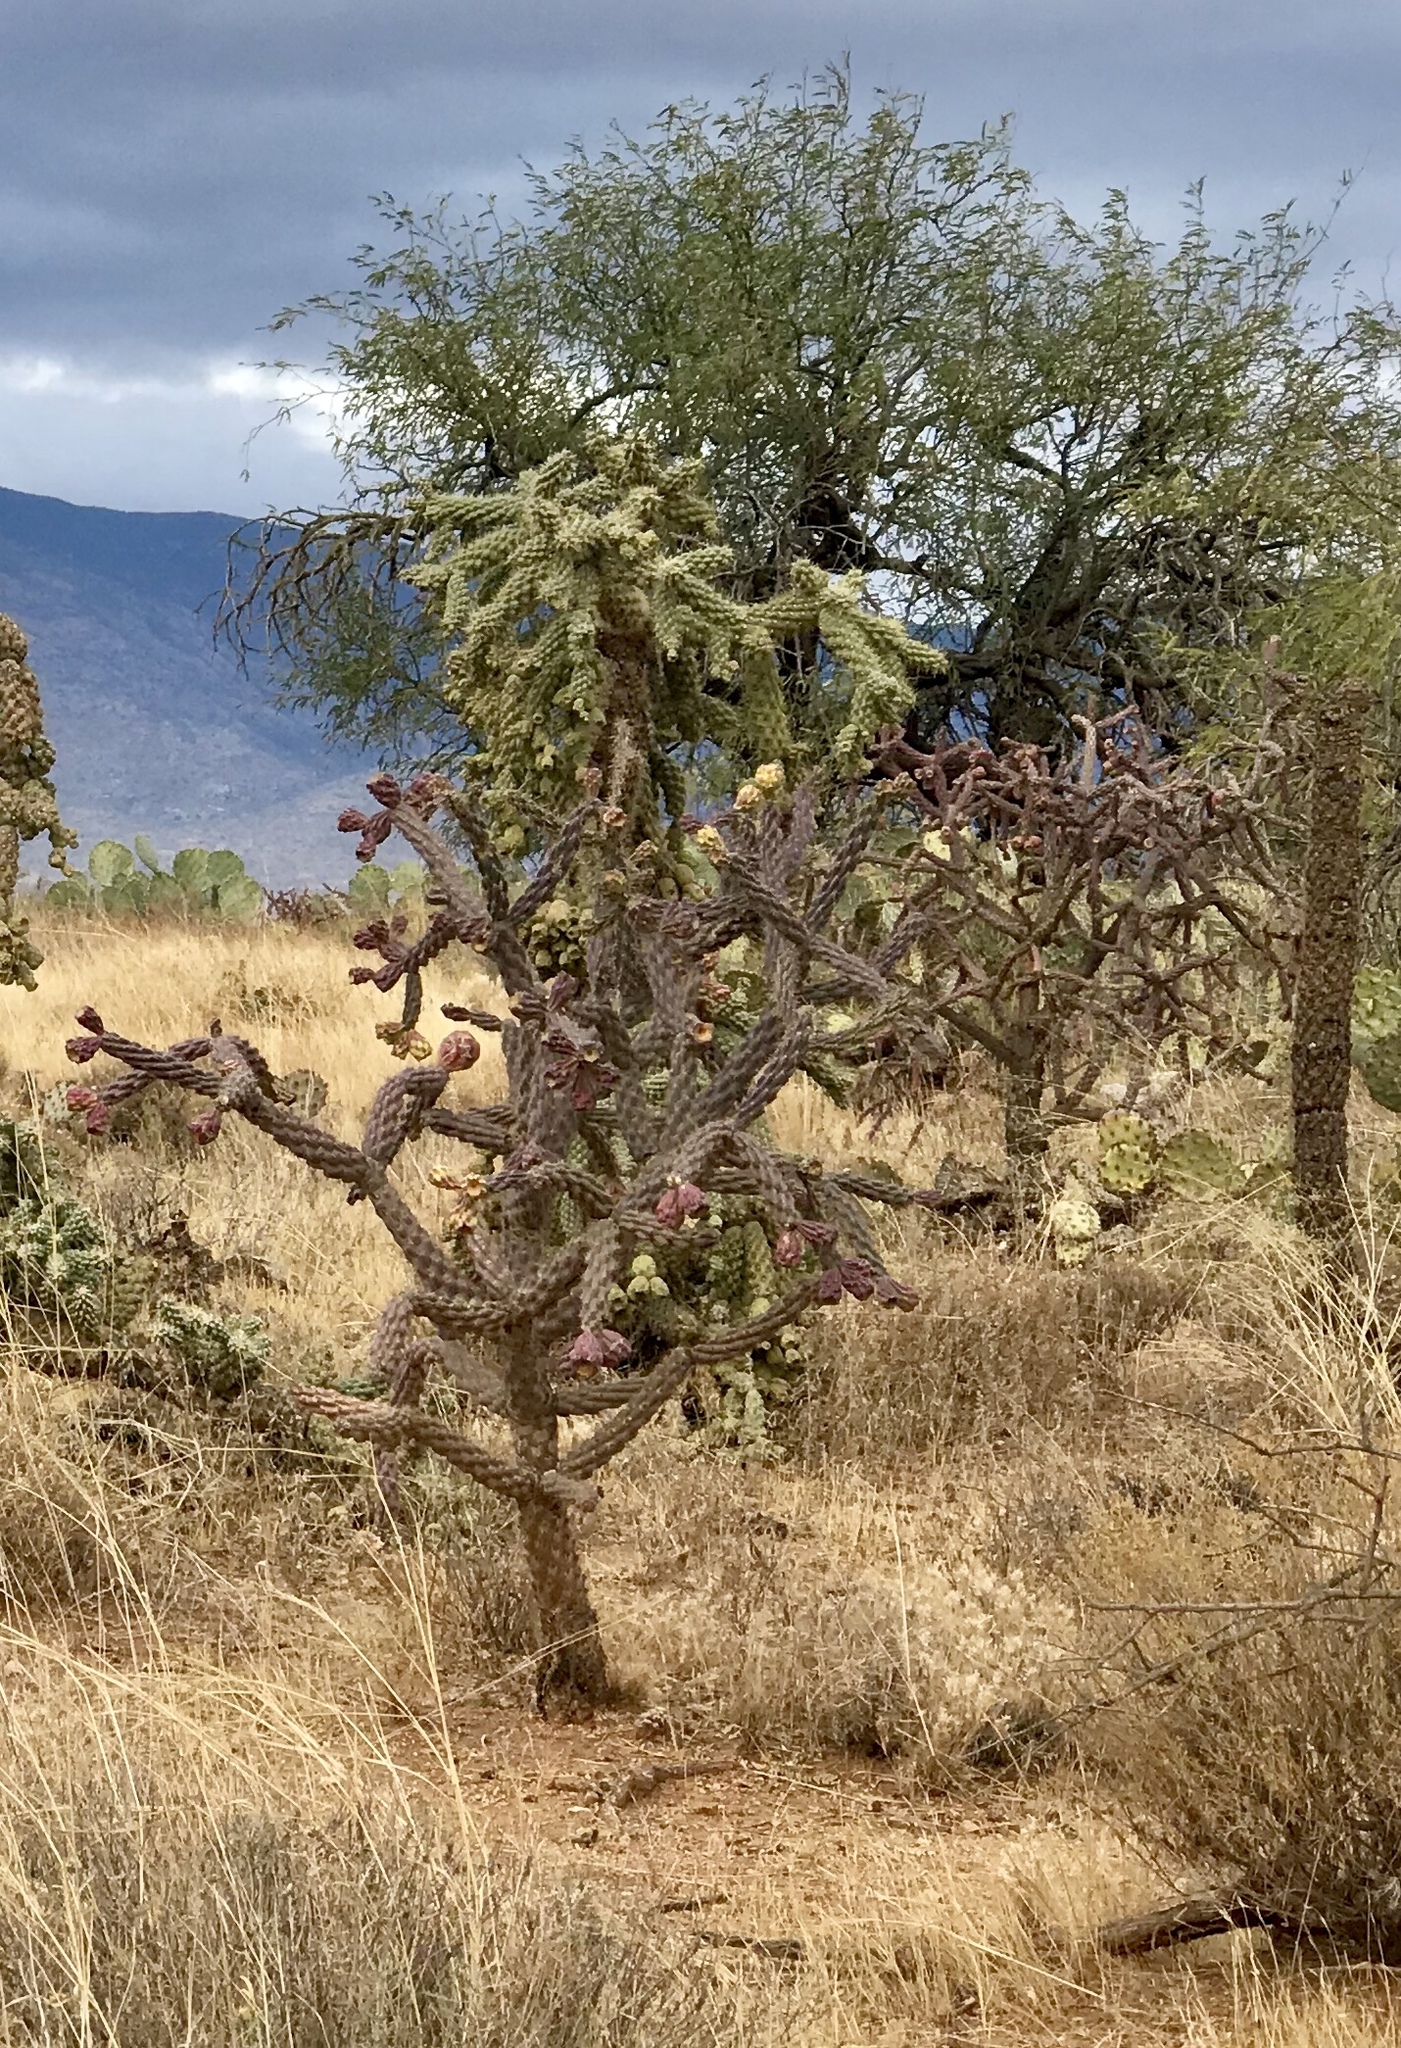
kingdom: Plantae
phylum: Tracheophyta
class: Magnoliopsida
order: Caryophyllales
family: Cactaceae
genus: Cylindropuntia
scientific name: Cylindropuntia fulgida
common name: Jumping cholla
